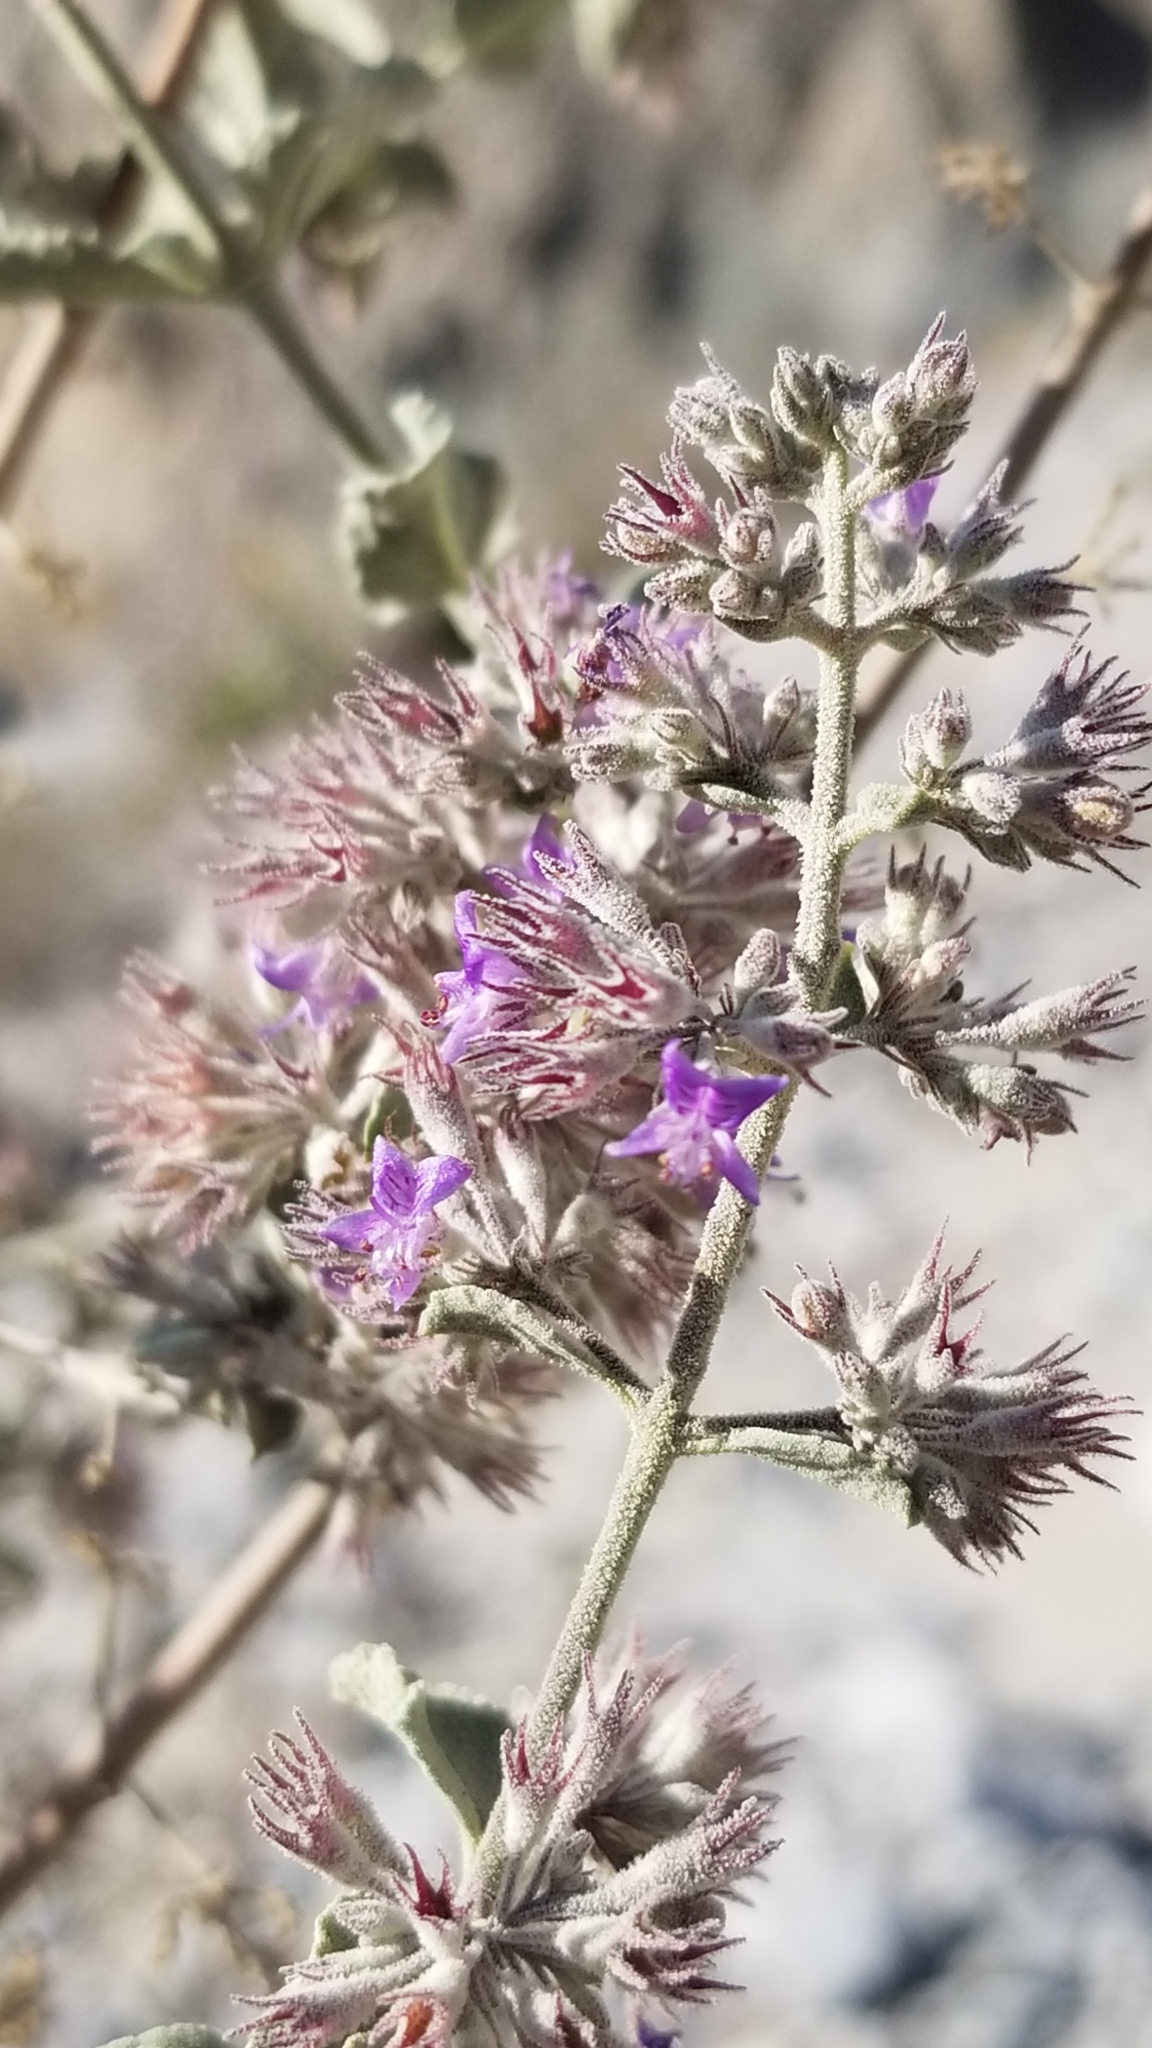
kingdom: Plantae
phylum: Tracheophyta
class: Magnoliopsida
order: Lamiales
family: Lamiaceae
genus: Condea
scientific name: Condea emoryi
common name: Chia
